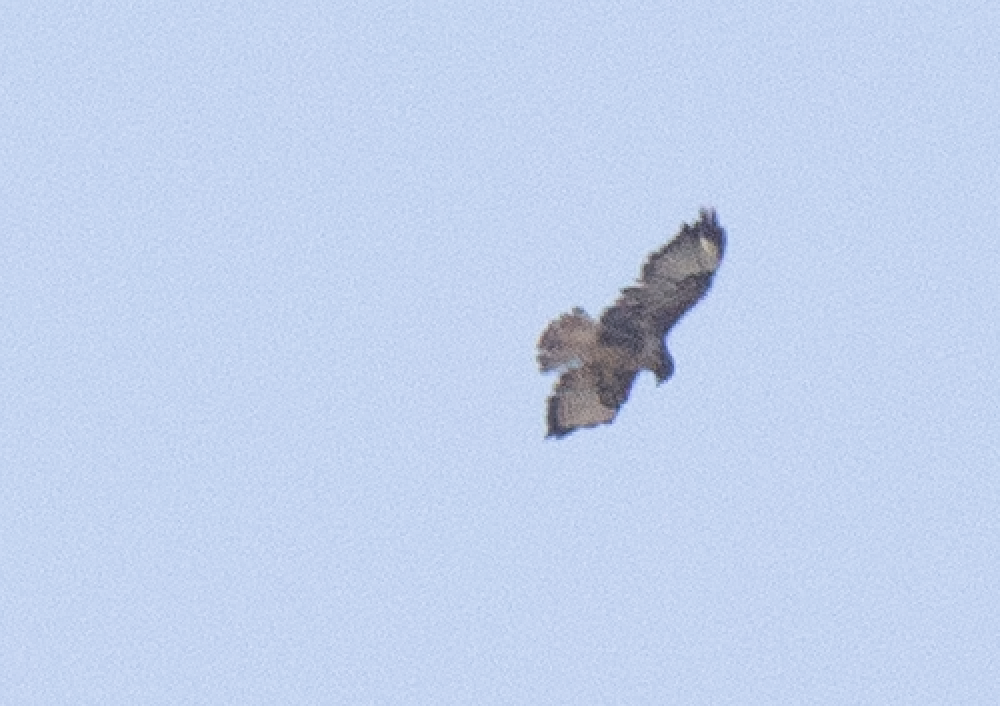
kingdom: Animalia
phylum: Chordata
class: Aves
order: Accipitriformes
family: Accipitridae
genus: Buteo
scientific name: Buteo buteo
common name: Common buzzard
